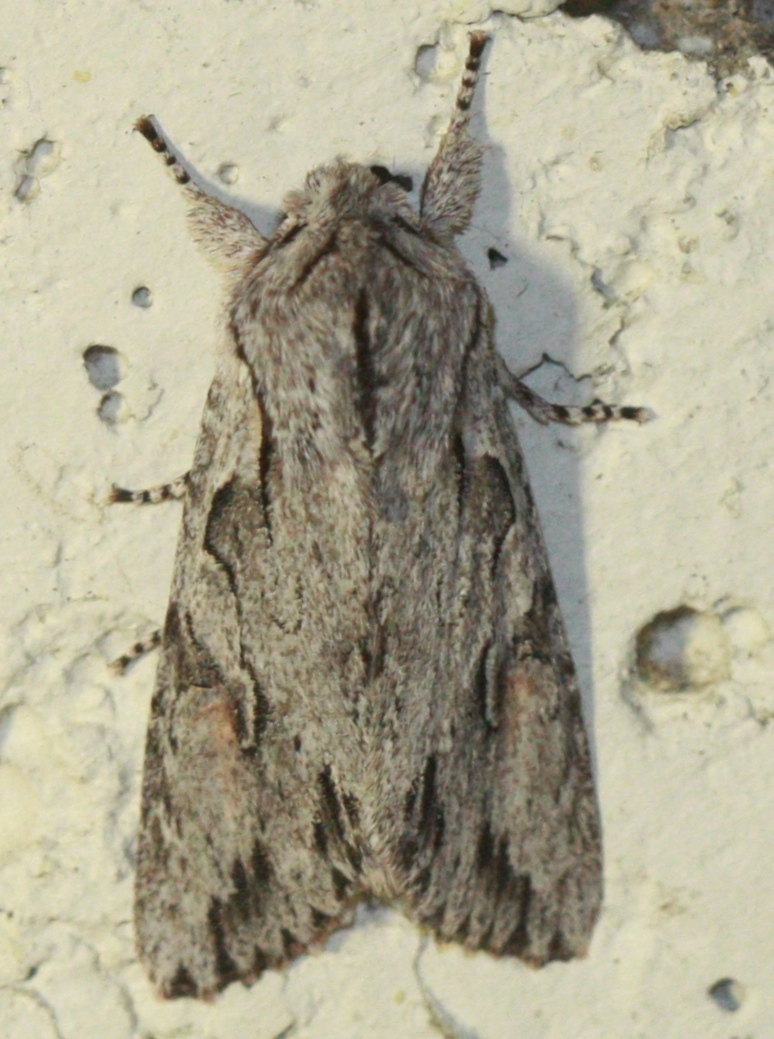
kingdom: Animalia
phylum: Arthropoda
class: Insecta
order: Lepidoptera
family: Noctuidae
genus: Egira
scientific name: Egira crucialis
